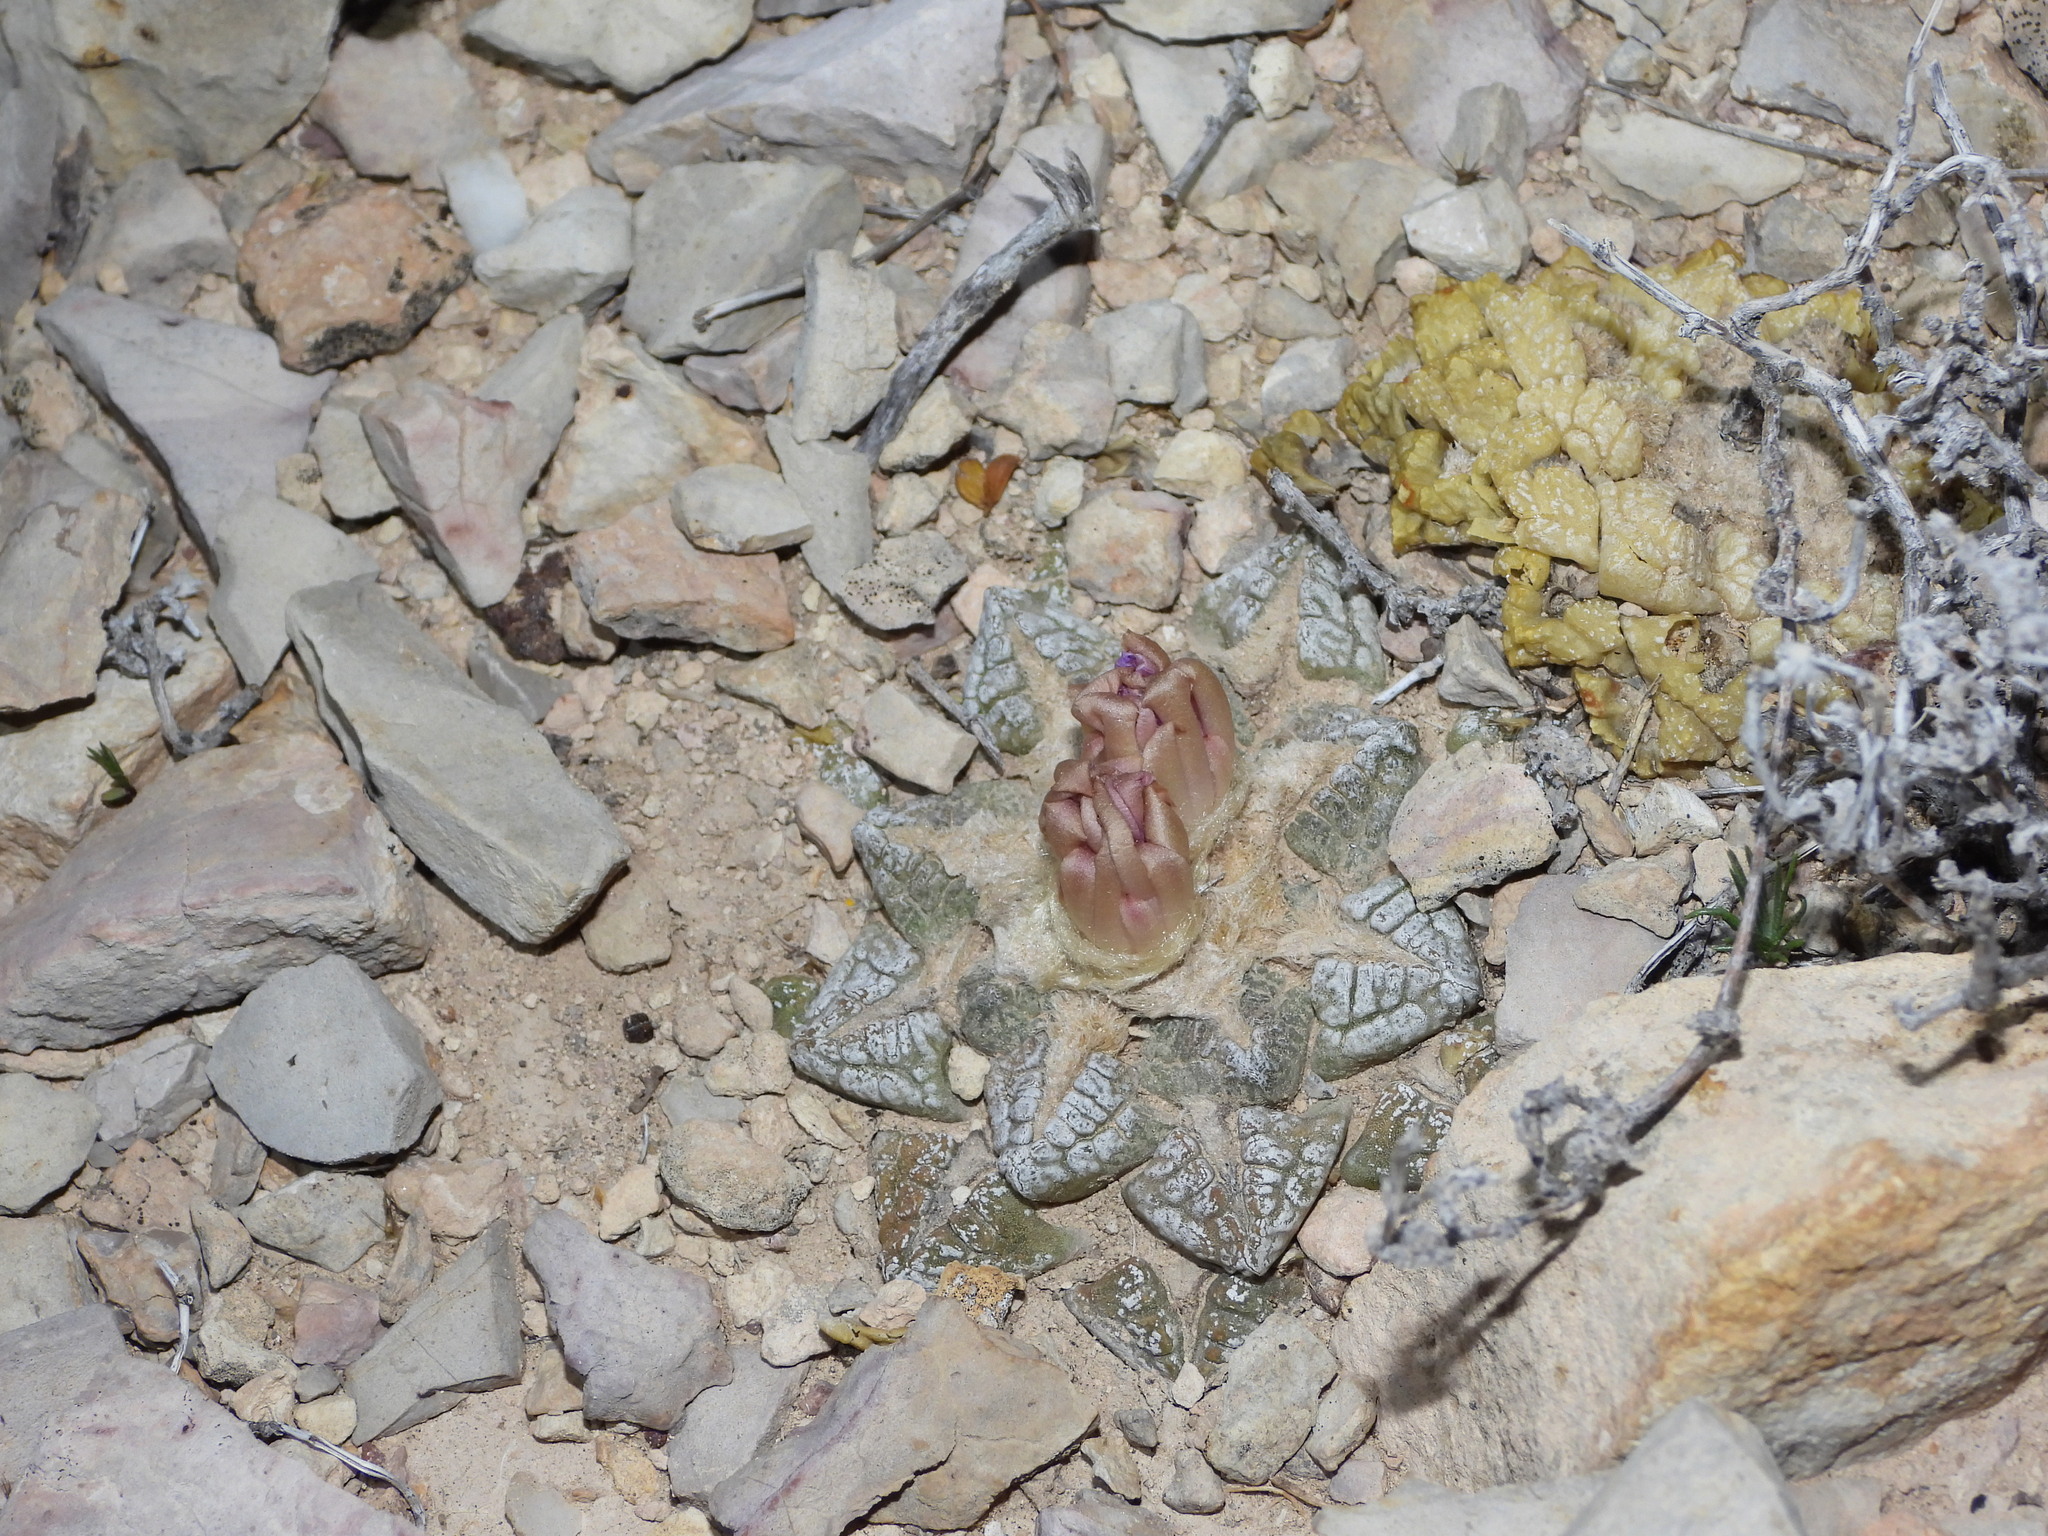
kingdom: Plantae
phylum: Tracheophyta
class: Magnoliopsida
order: Caryophyllales
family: Cactaceae
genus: Ariocarpus
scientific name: Ariocarpus fissuratus
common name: Chautle-living rock
